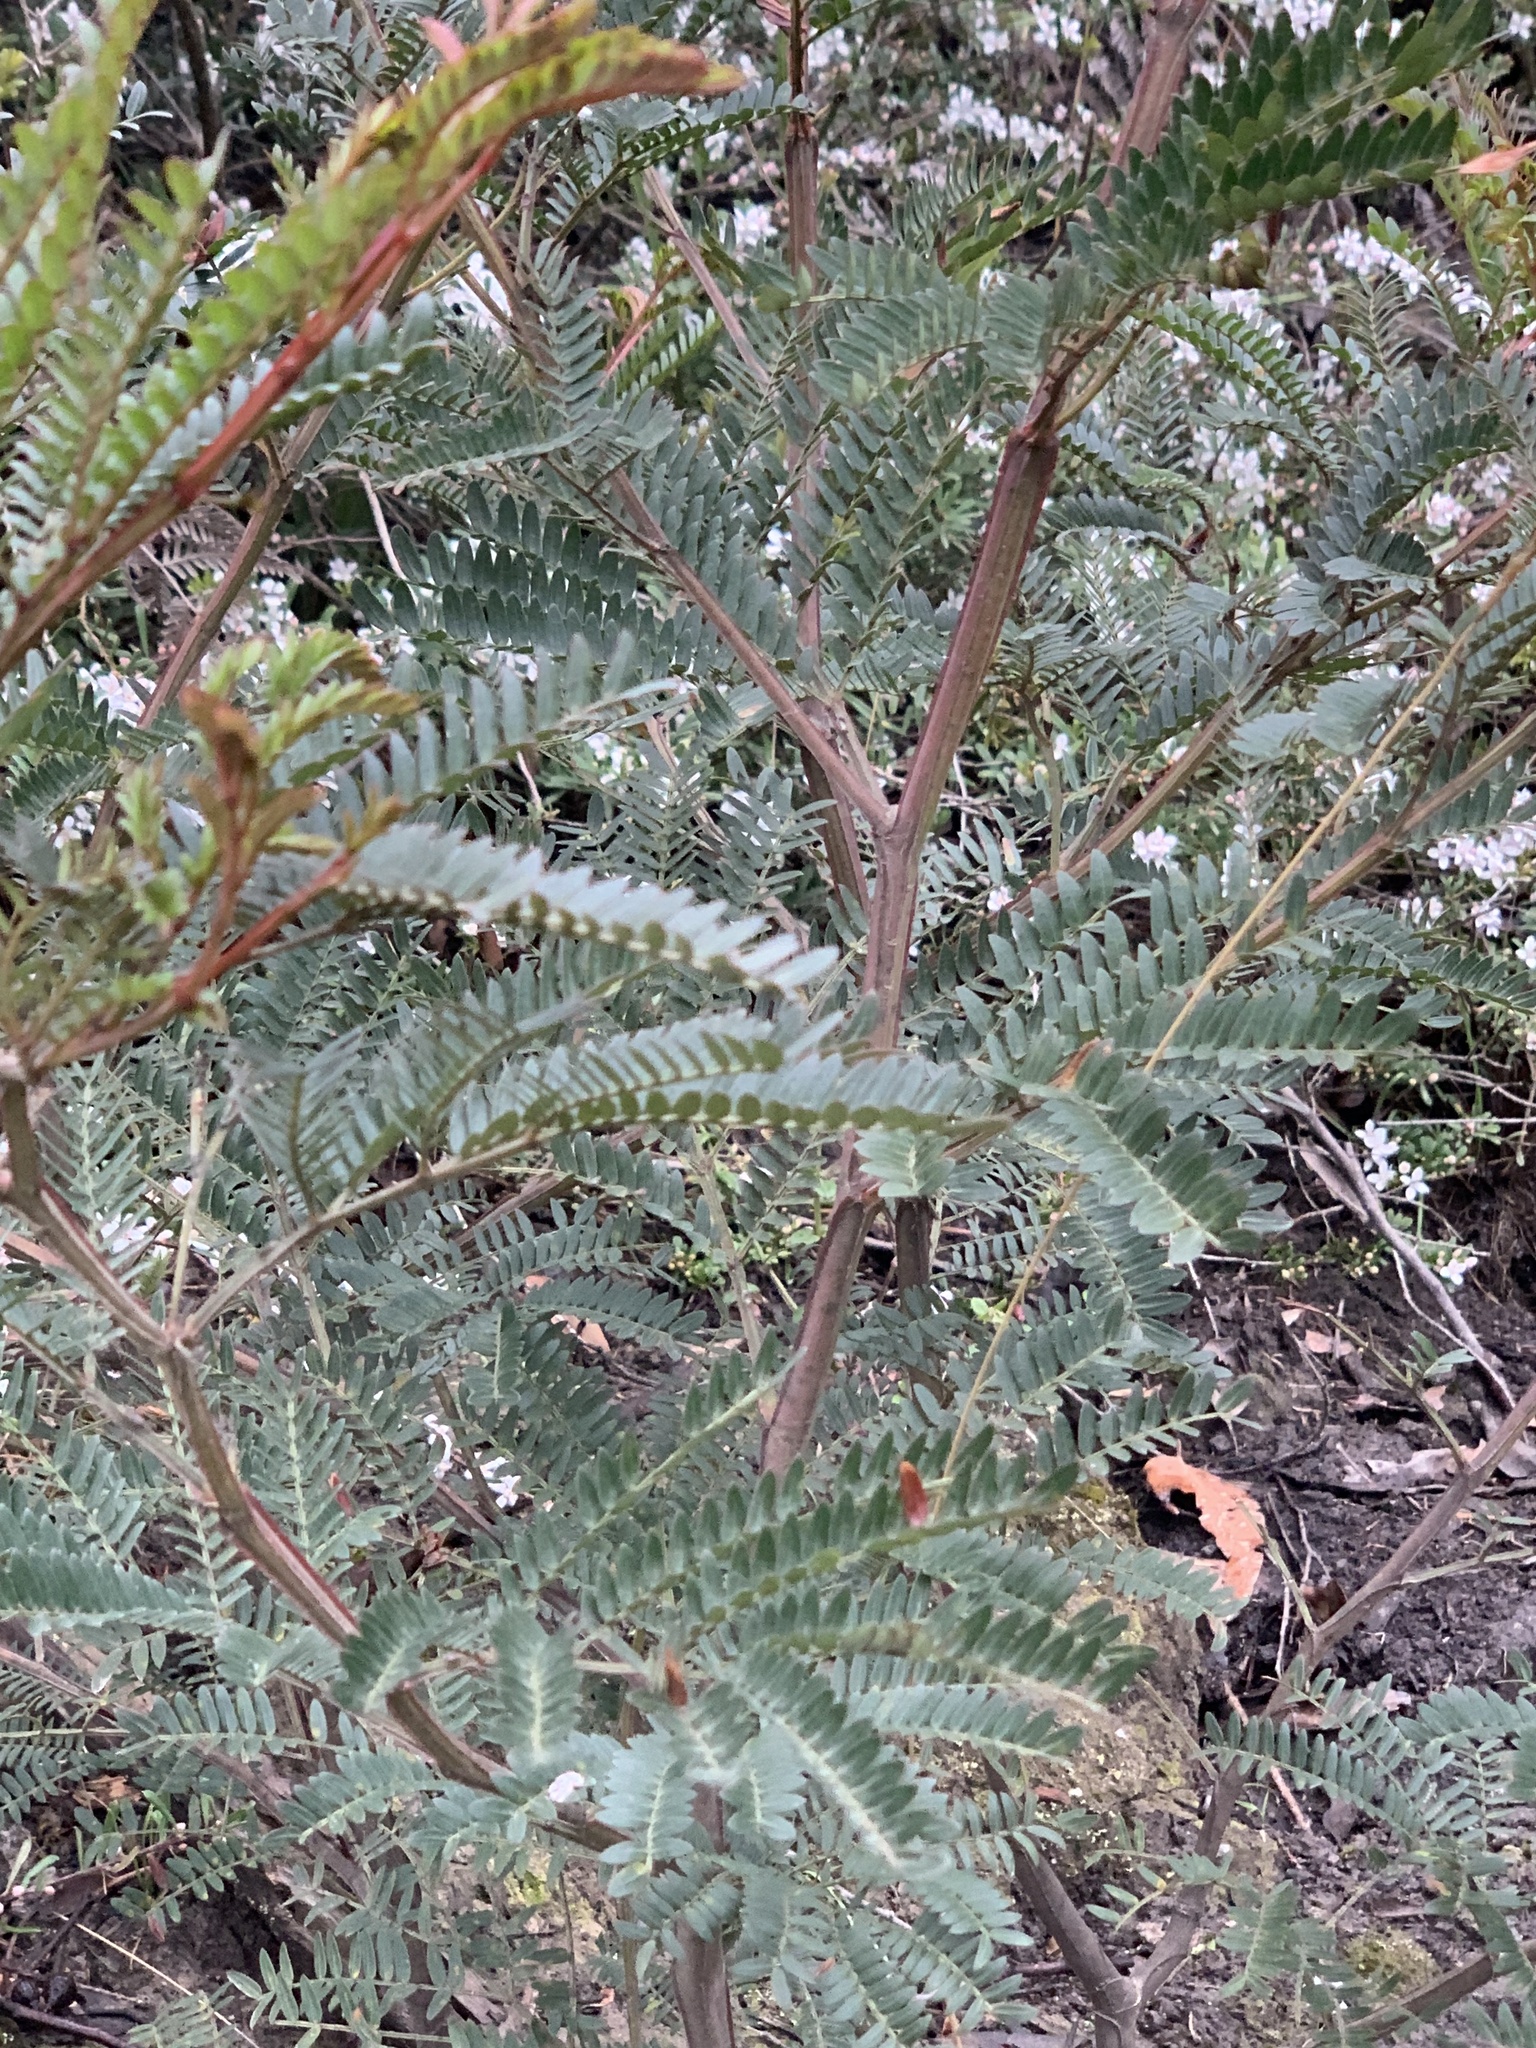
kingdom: Plantae
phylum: Tracheophyta
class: Magnoliopsida
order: Fabales
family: Fabaceae
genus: Acacia
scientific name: Acacia terminalis
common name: Cedar wattle
